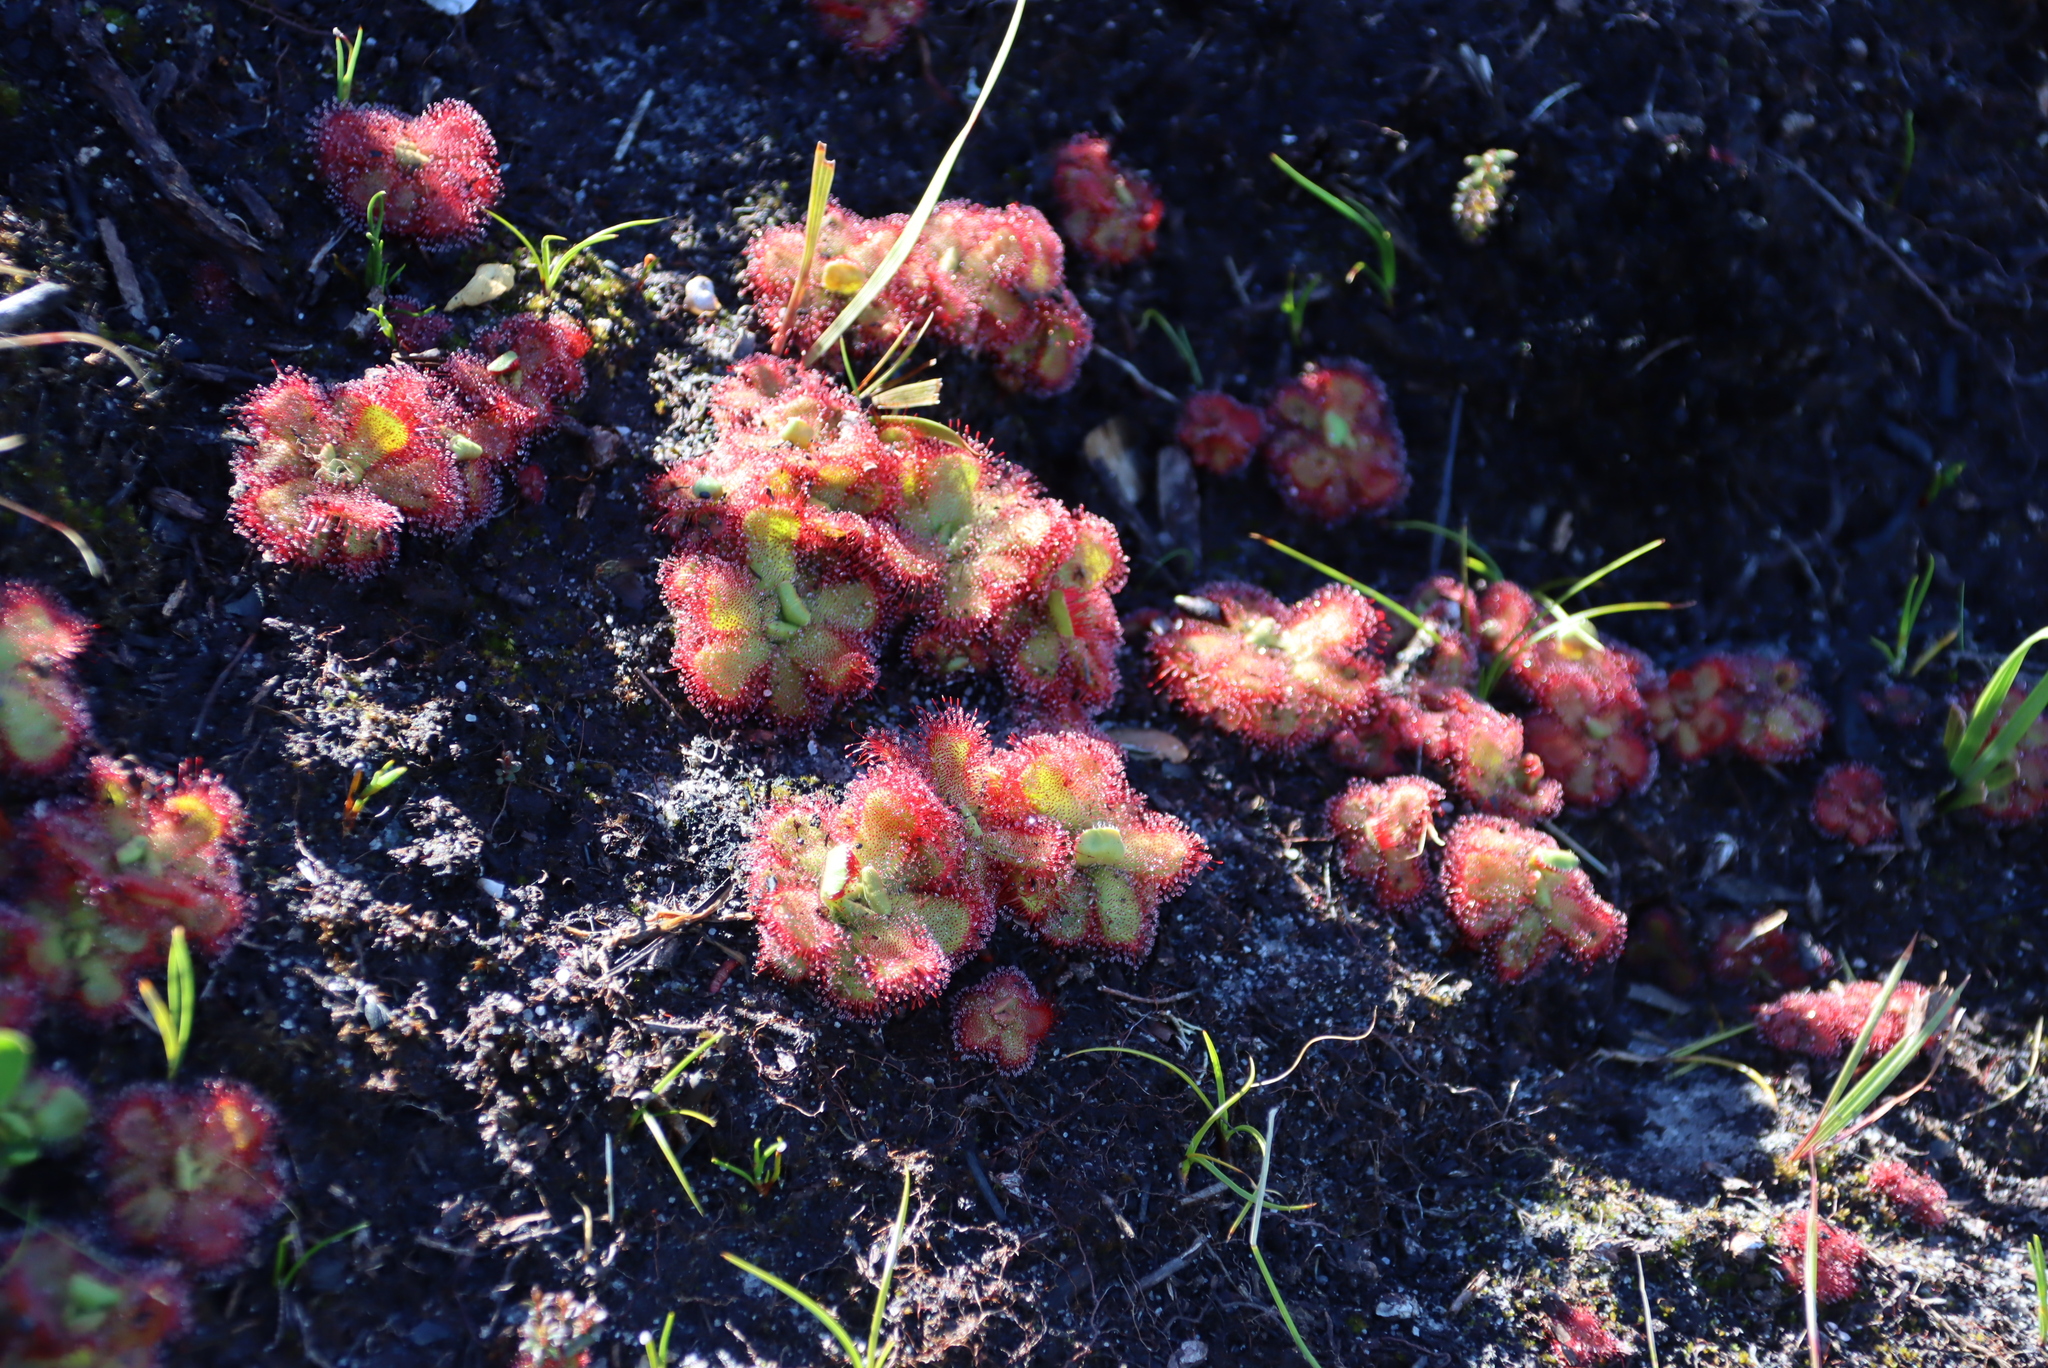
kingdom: Plantae
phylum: Tracheophyta
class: Magnoliopsida
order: Caryophyllales
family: Droseraceae
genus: Drosera
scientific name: Drosera cuneifolia
